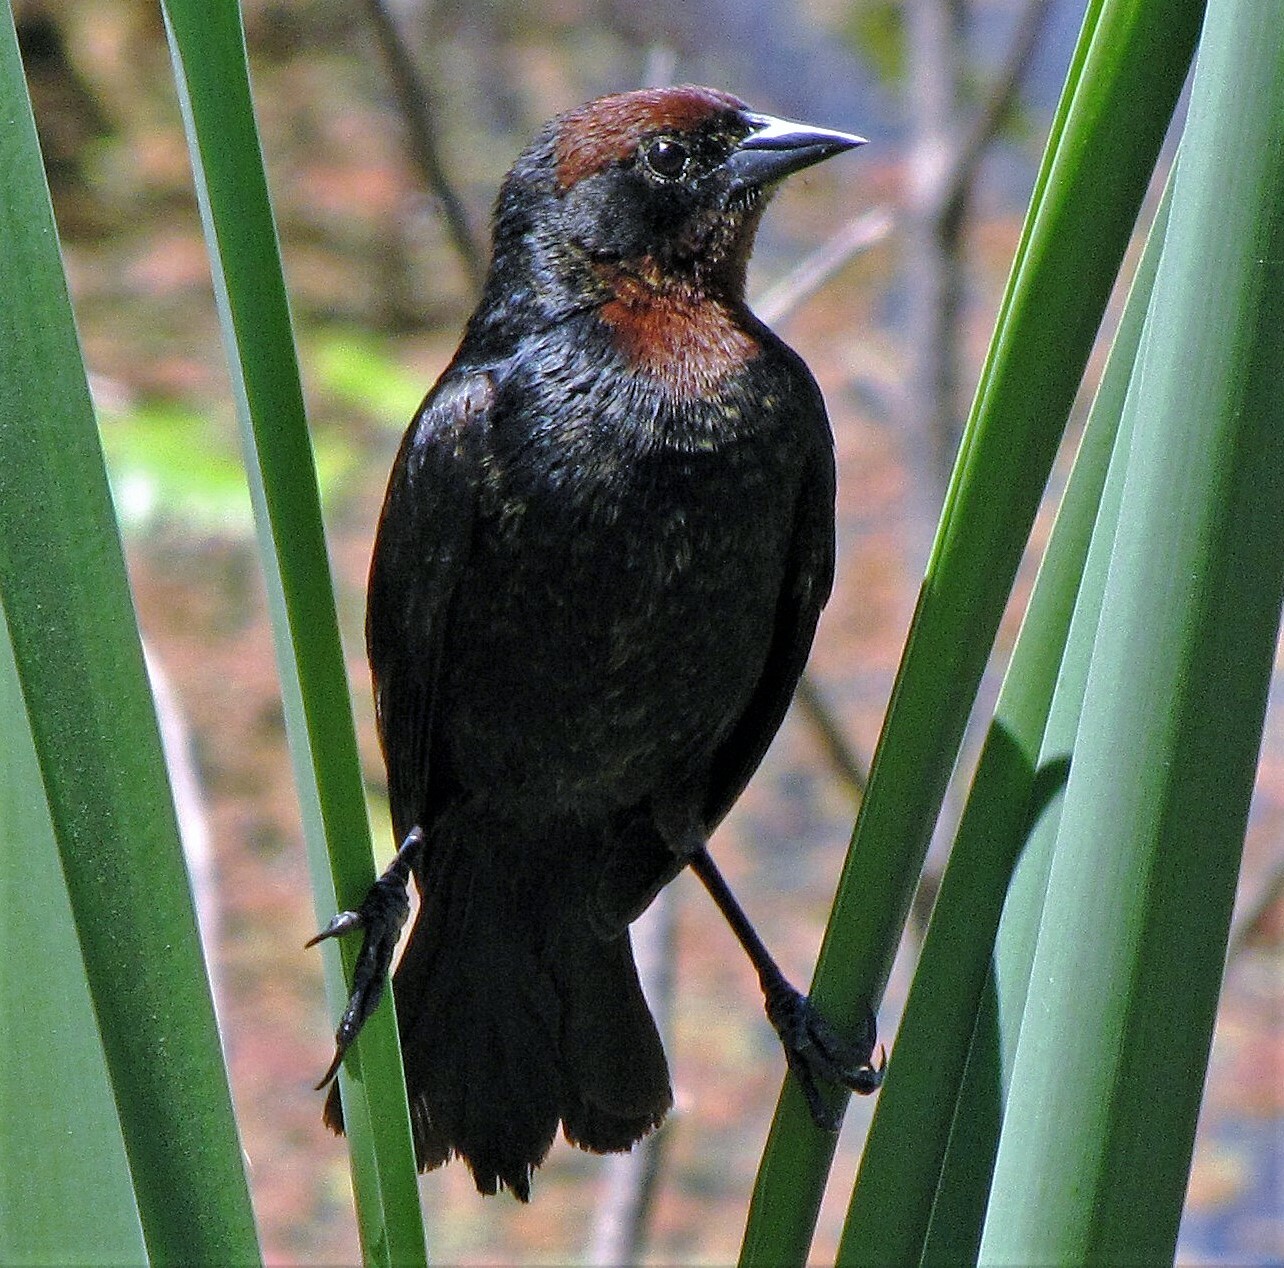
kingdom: Animalia
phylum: Chordata
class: Aves
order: Passeriformes
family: Icteridae
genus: Chrysomus
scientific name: Chrysomus ruficapillus
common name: Chestnut-capped blackbird
